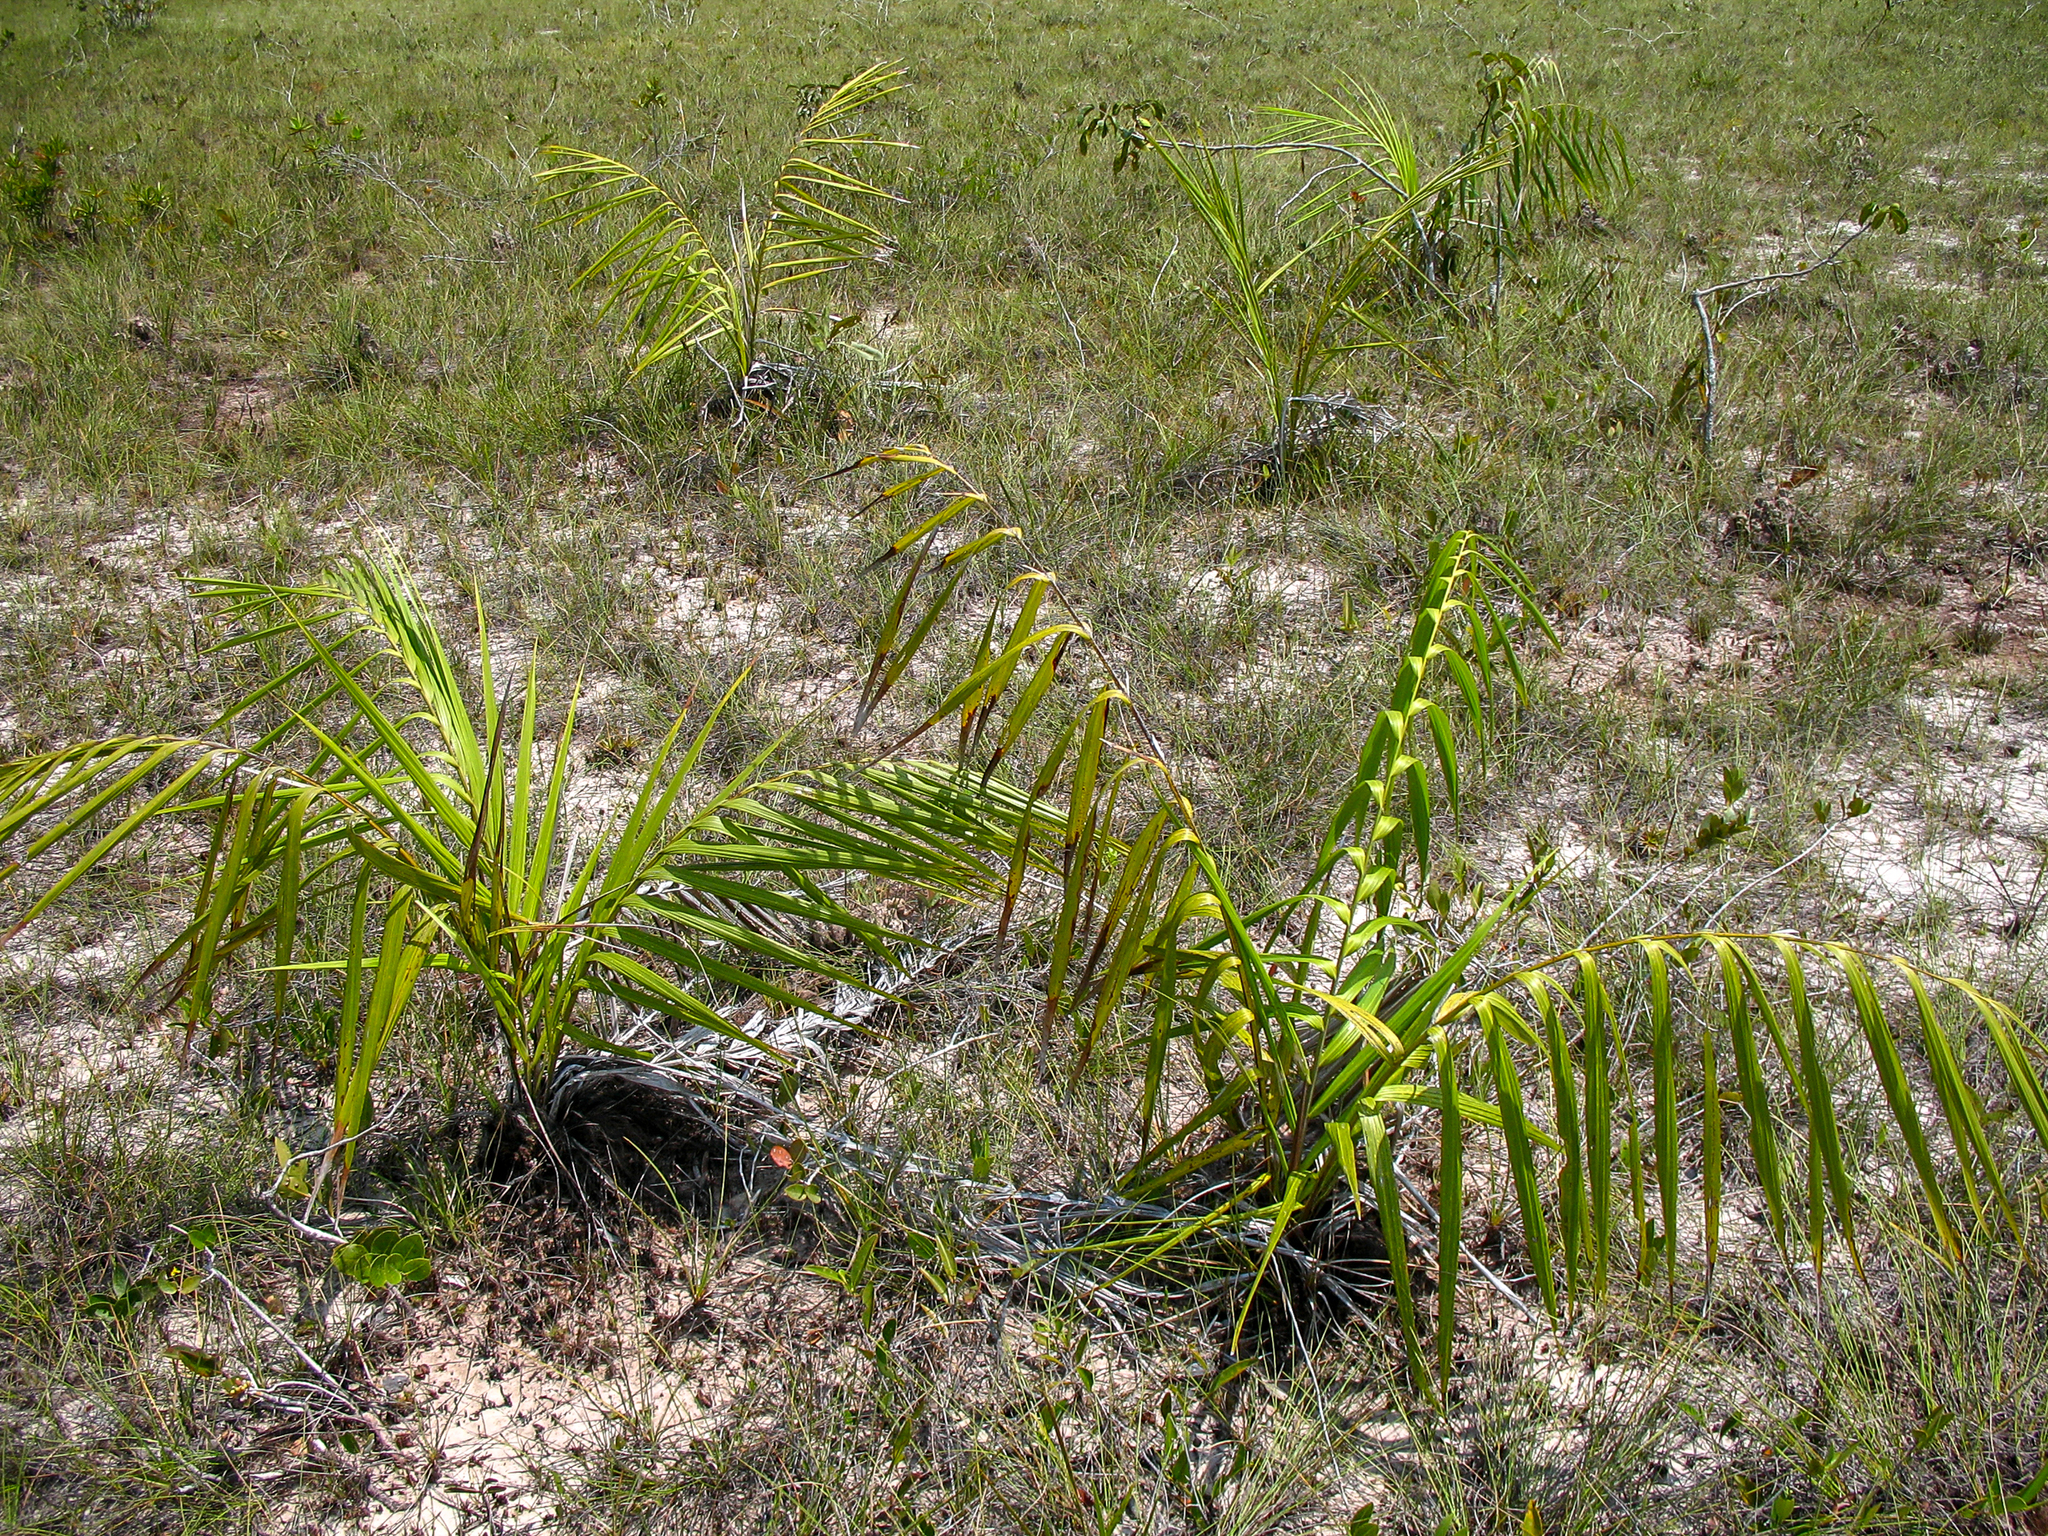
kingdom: Plantae
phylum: Tracheophyta
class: Liliopsida
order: Arecales
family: Arecaceae
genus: Barcella
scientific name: Barcella odora
